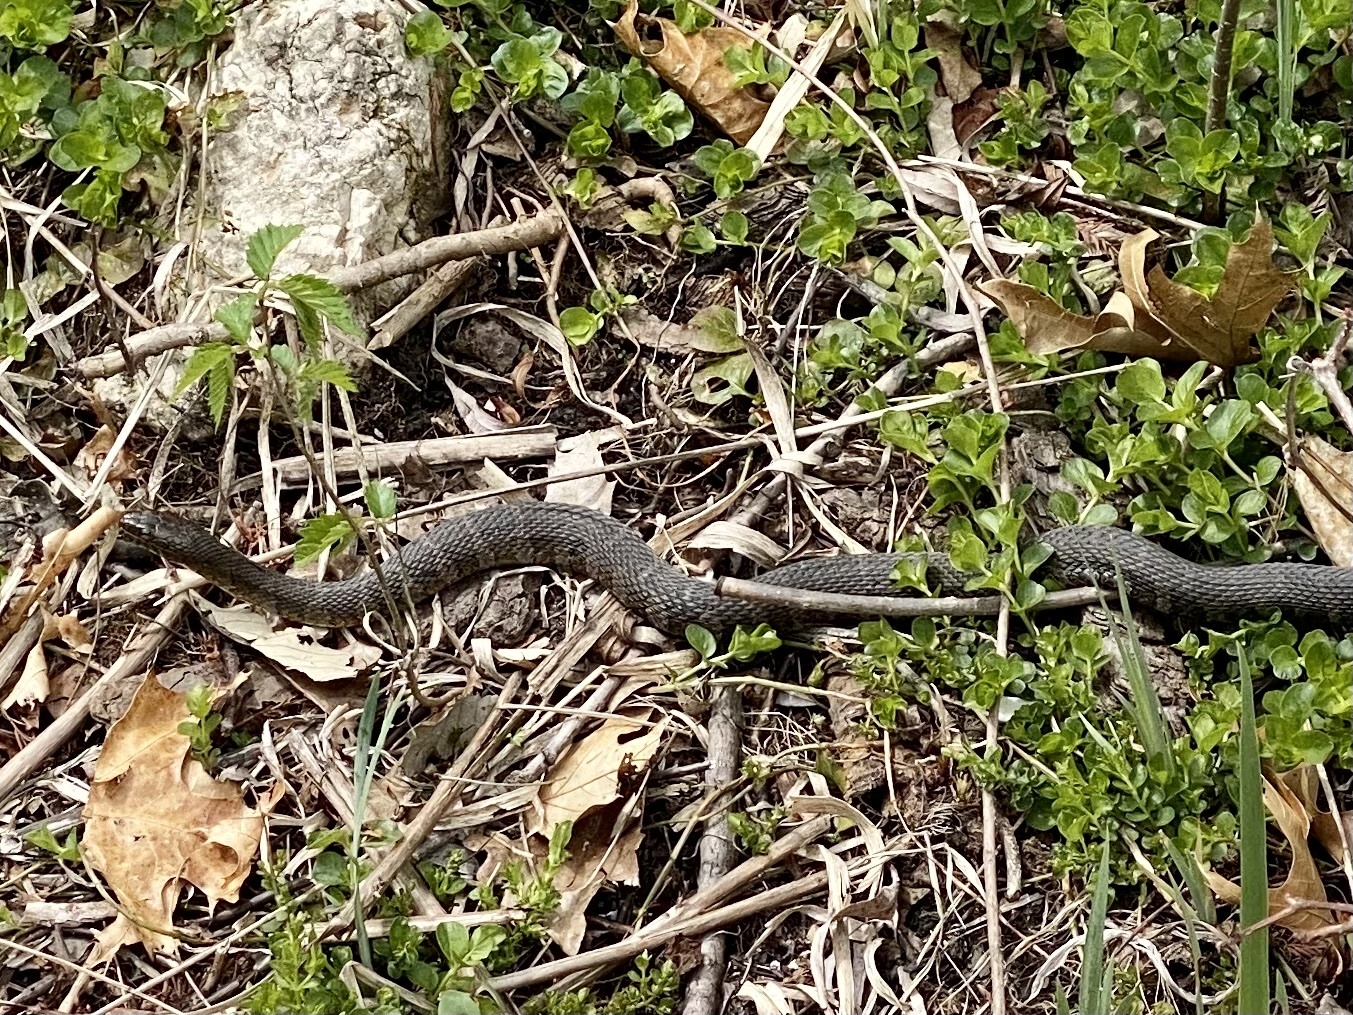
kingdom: Animalia
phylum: Chordata
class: Squamata
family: Colubridae
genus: Nerodia
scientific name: Nerodia sipedon
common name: Northern water snake
